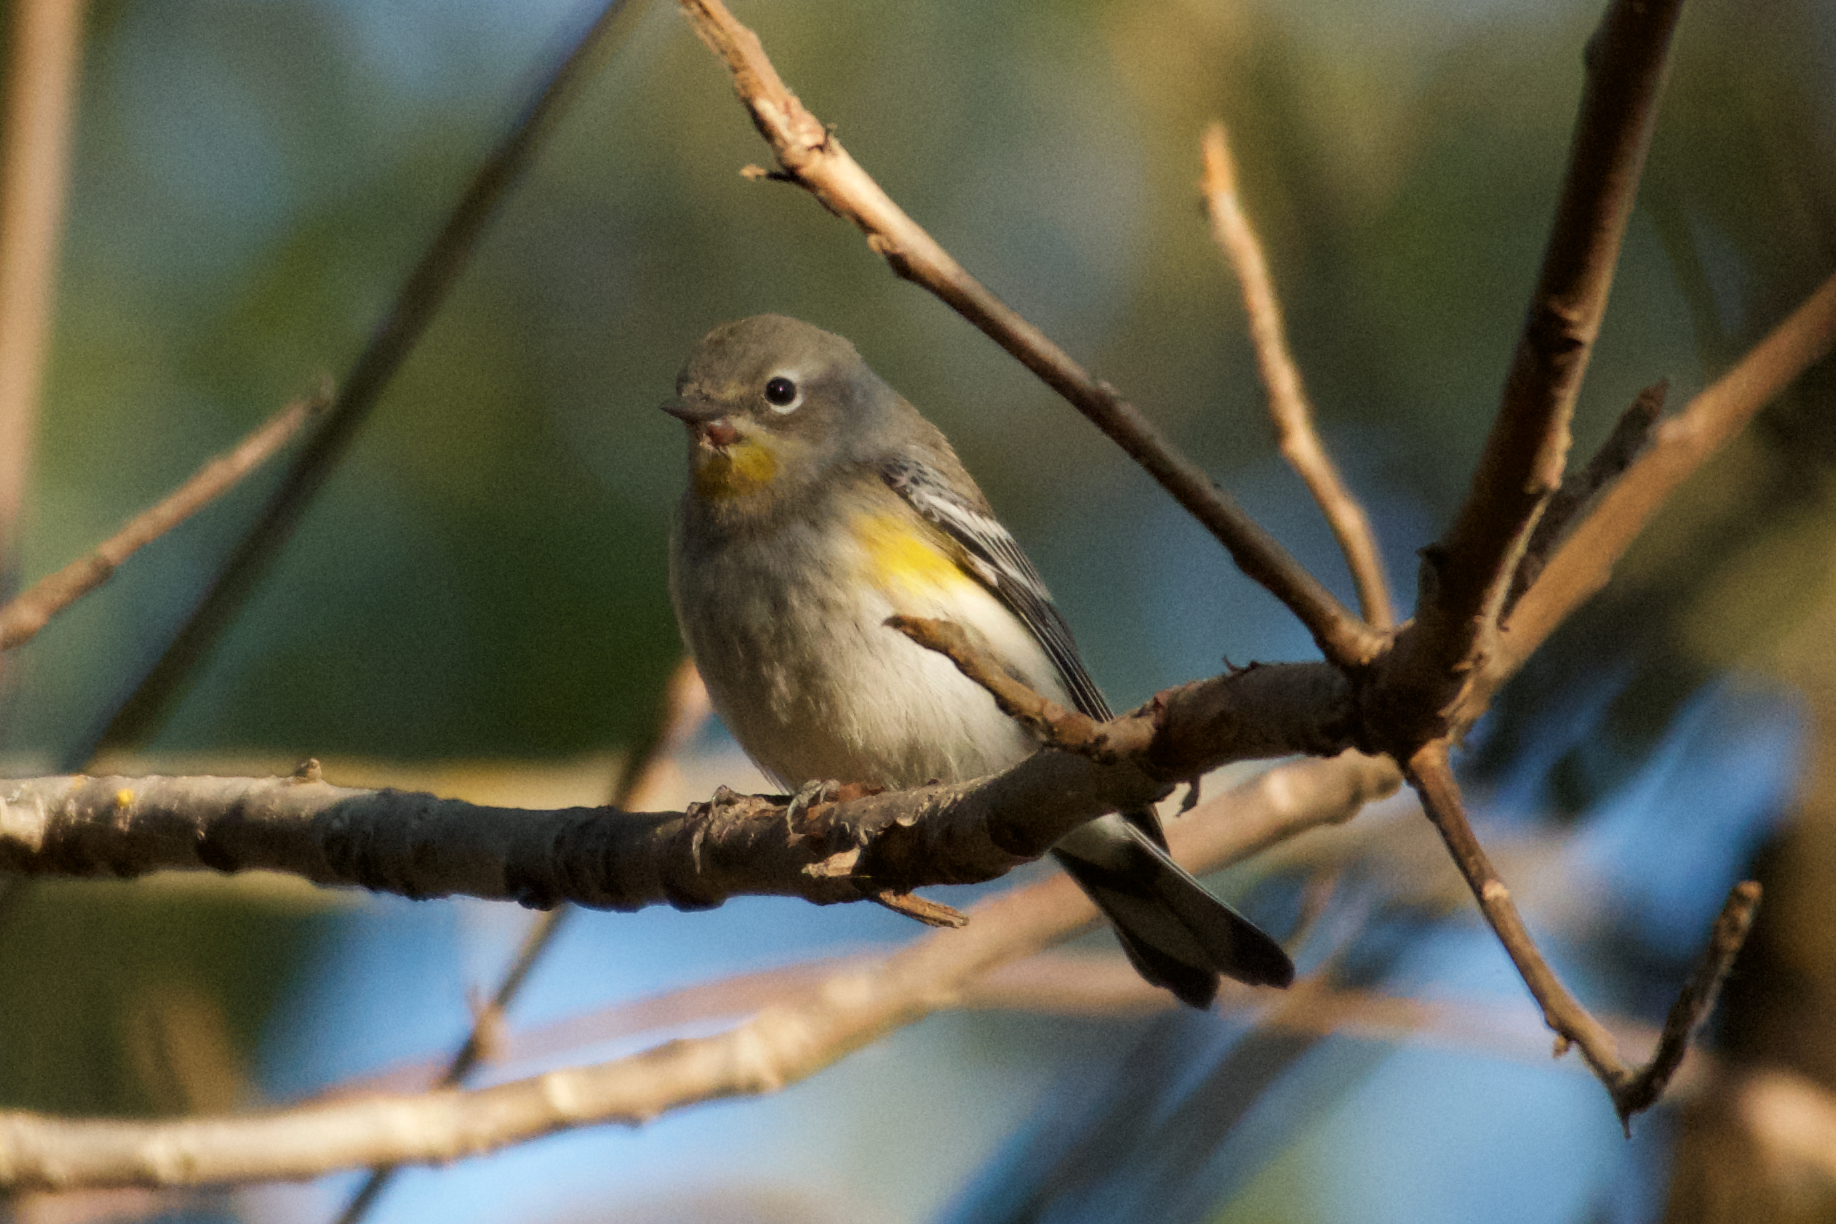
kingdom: Animalia
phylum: Chordata
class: Aves
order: Passeriformes
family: Parulidae
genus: Setophaga
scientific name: Setophaga coronata
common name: Myrtle warbler
